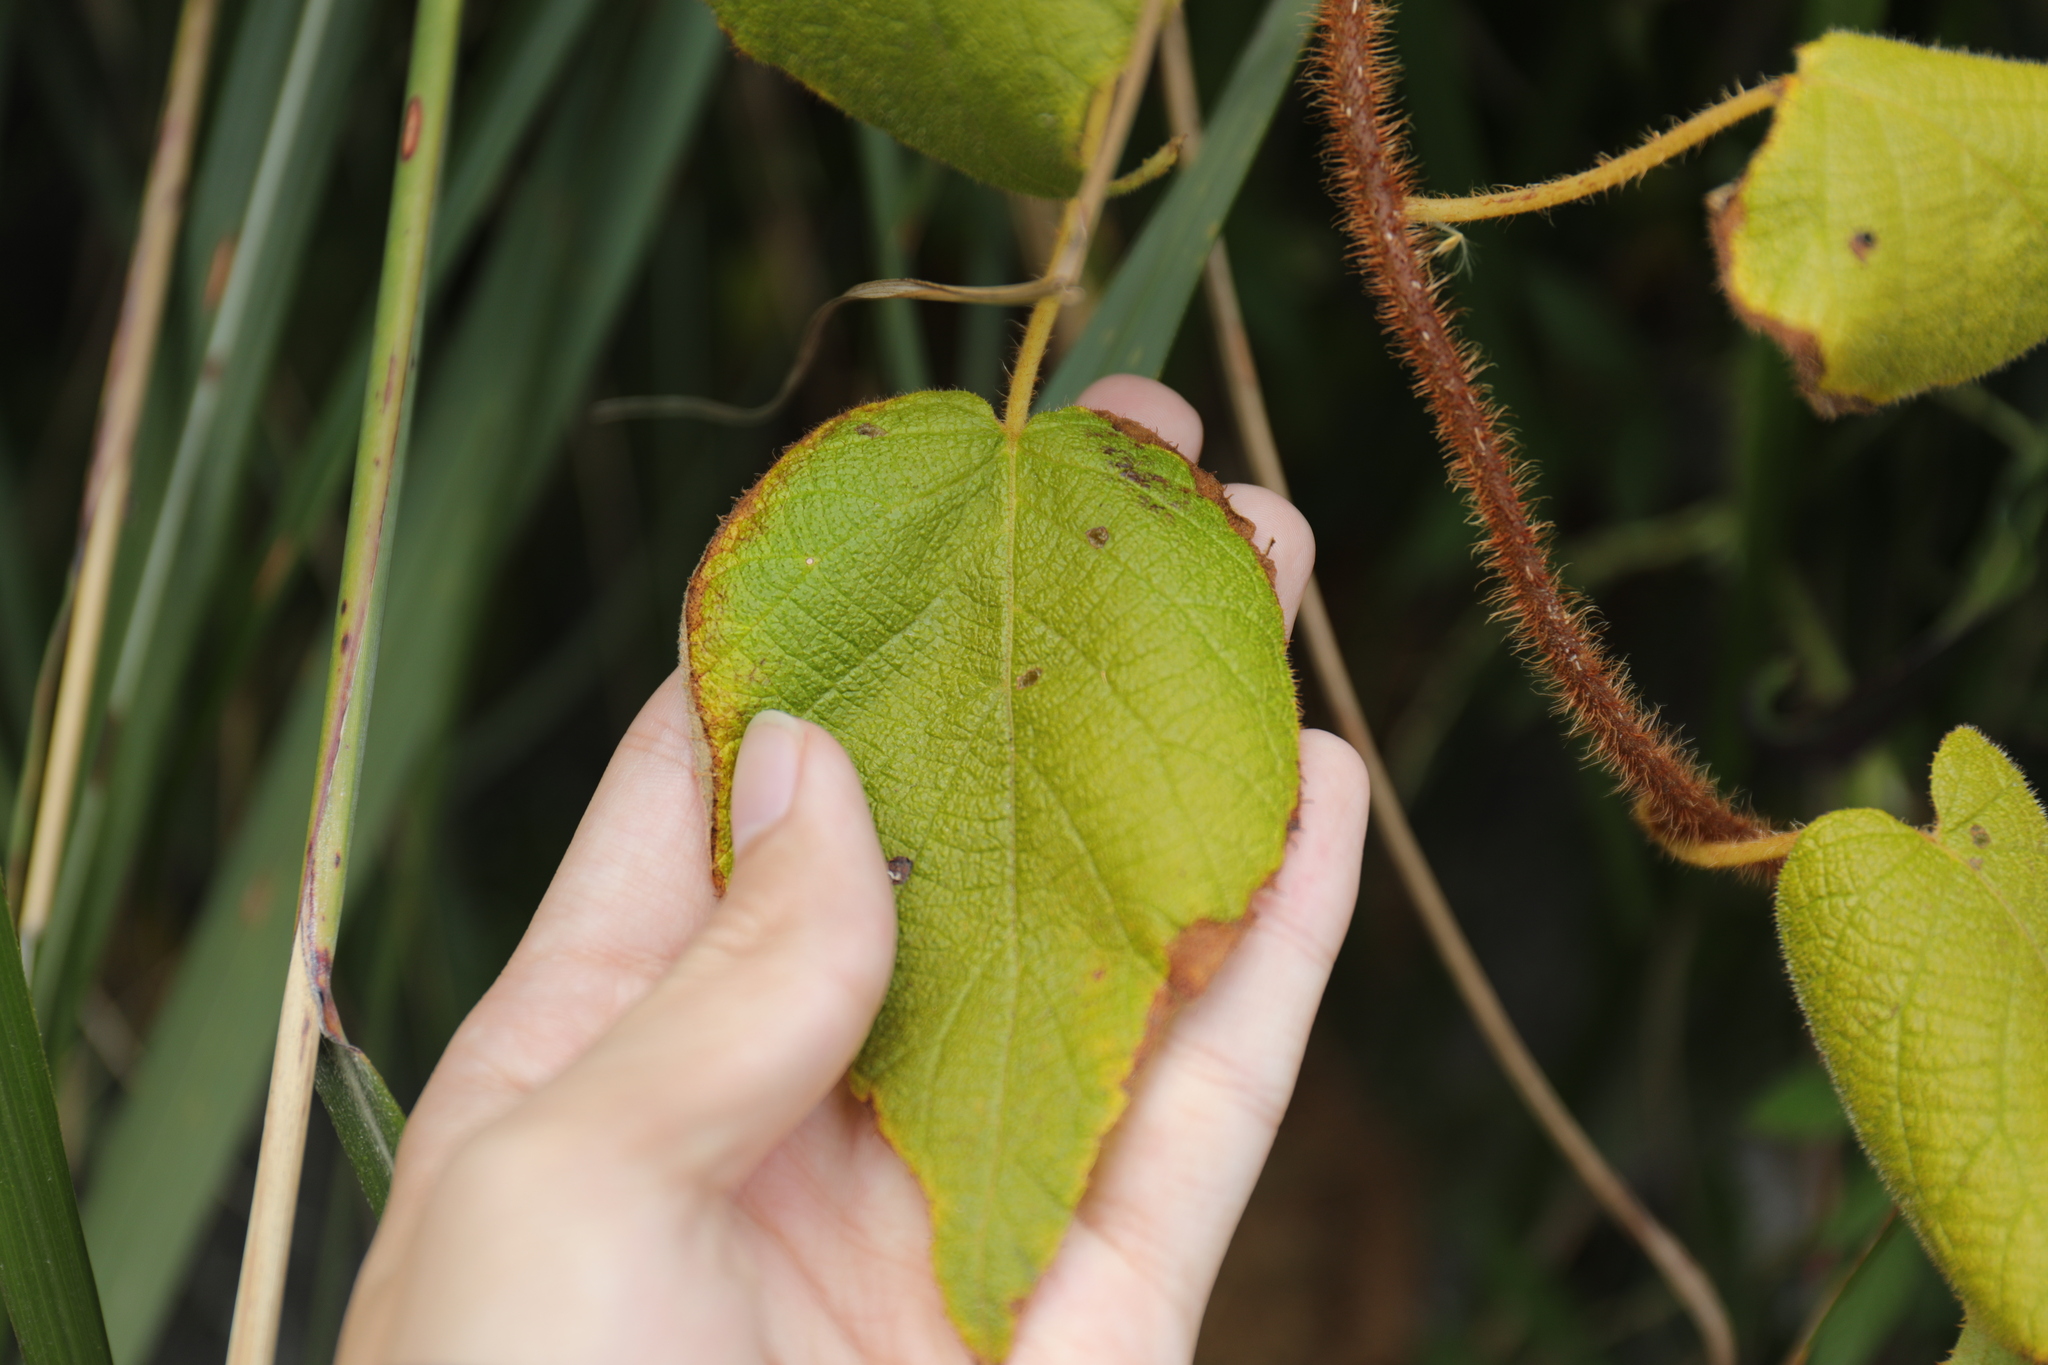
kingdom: Plantae
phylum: Tracheophyta
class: Magnoliopsida
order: Ericales
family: Actinidiaceae
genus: Actinidia
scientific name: Actinidia chinensis
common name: Kiwi
